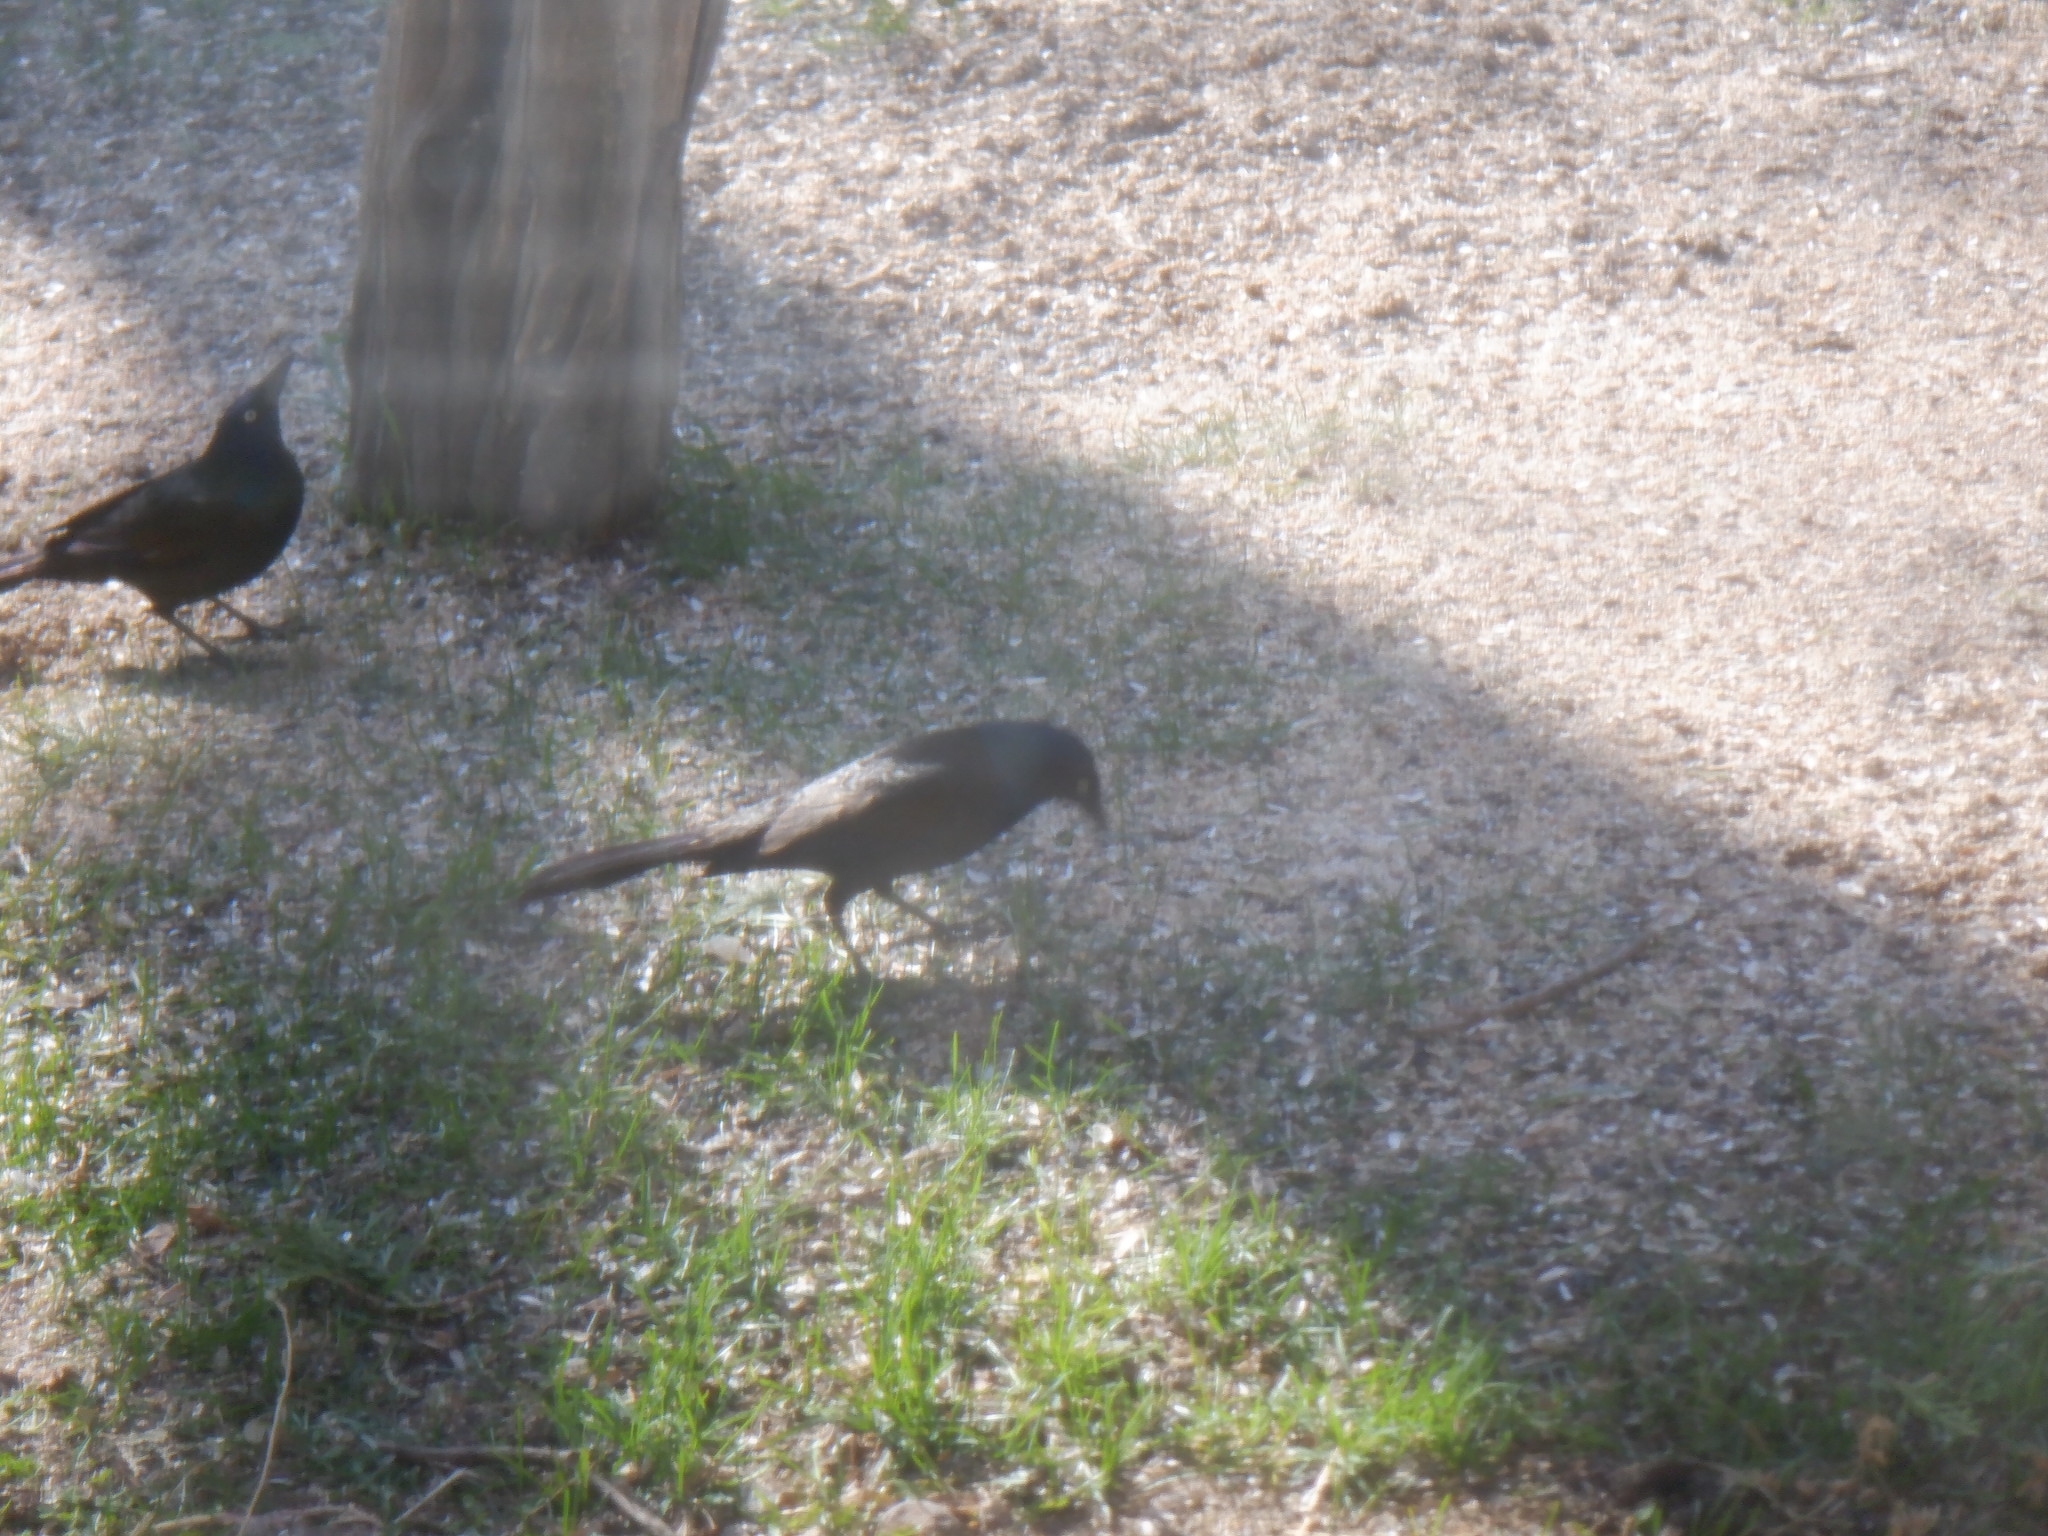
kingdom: Animalia
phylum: Chordata
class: Aves
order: Passeriformes
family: Icteridae
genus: Quiscalus
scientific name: Quiscalus quiscula
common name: Common grackle
